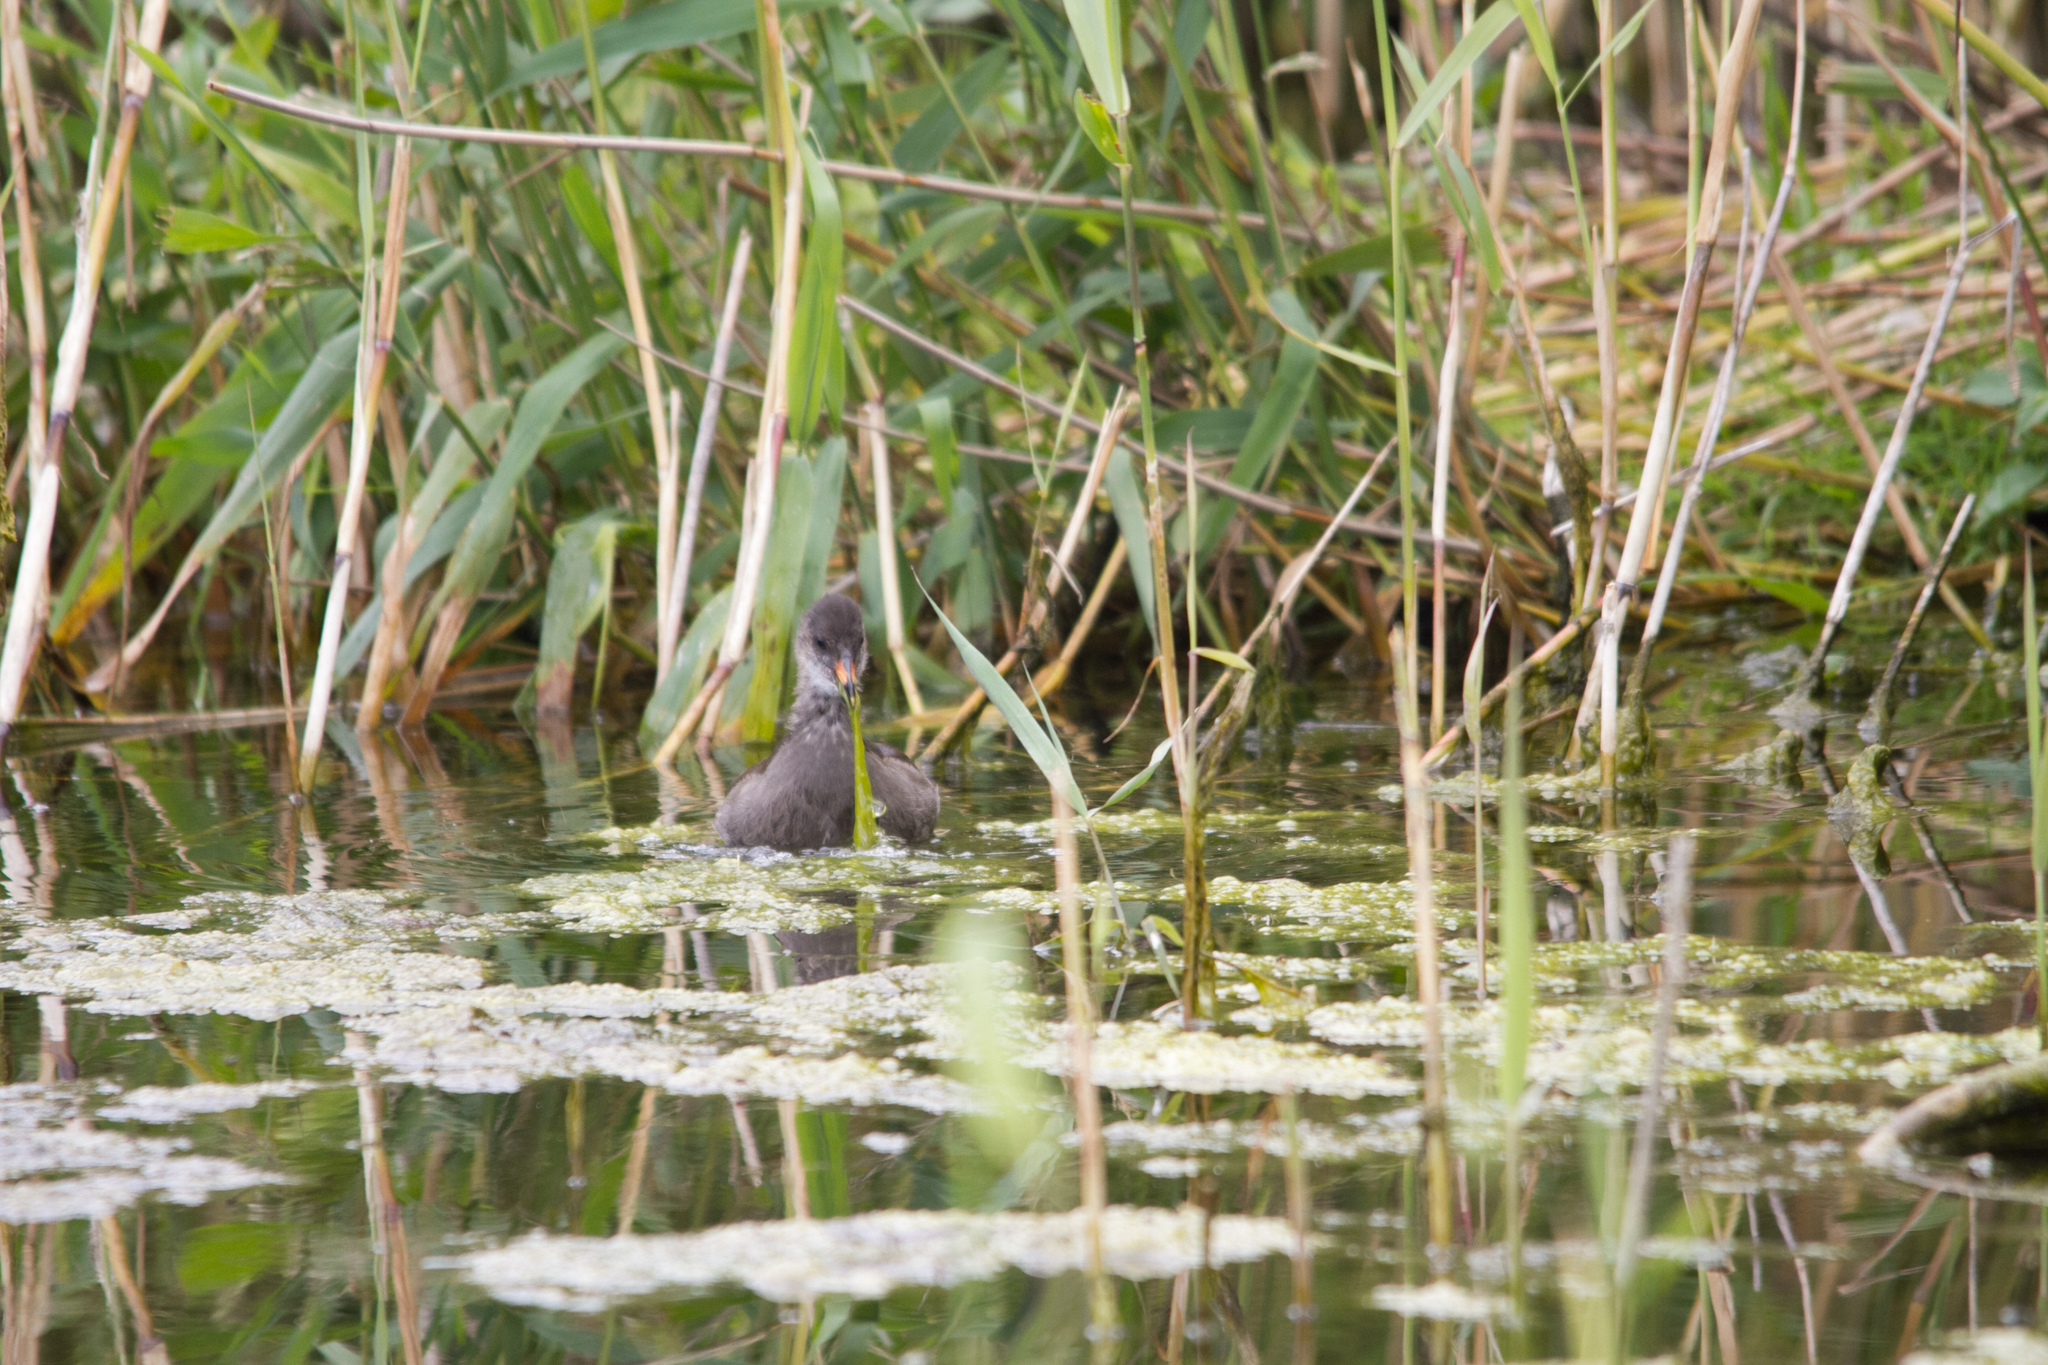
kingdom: Animalia
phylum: Chordata
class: Aves
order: Gruiformes
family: Rallidae
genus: Gallinula
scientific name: Gallinula chloropus
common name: Common moorhen
